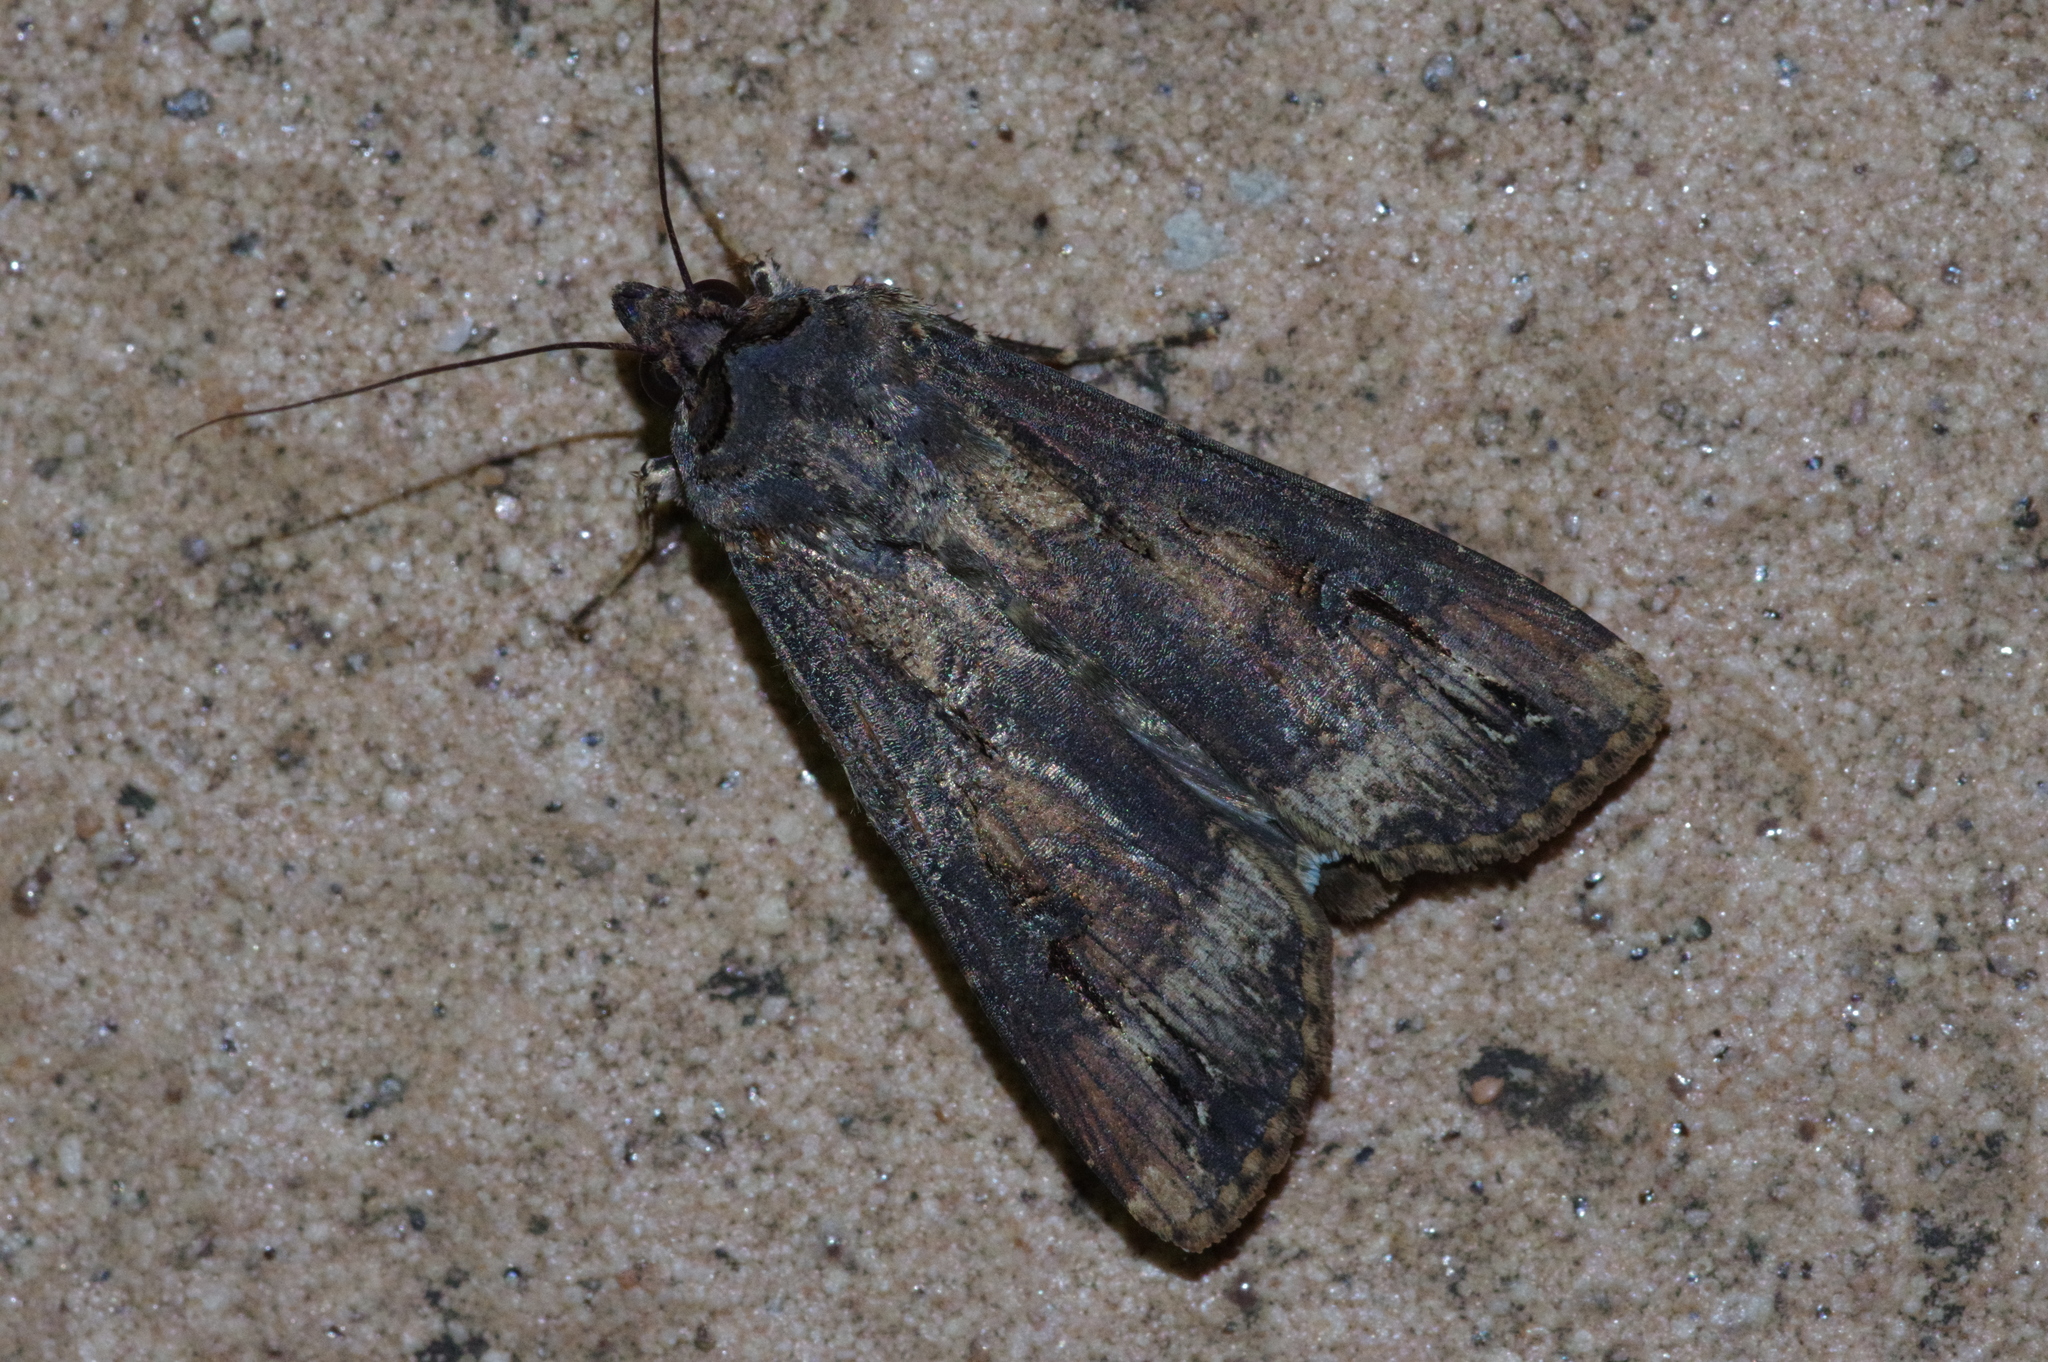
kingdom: Animalia
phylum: Arthropoda
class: Insecta
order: Lepidoptera
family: Noctuidae
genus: Agrotis
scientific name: Agrotis ipsilon
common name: Dark sword-grass
